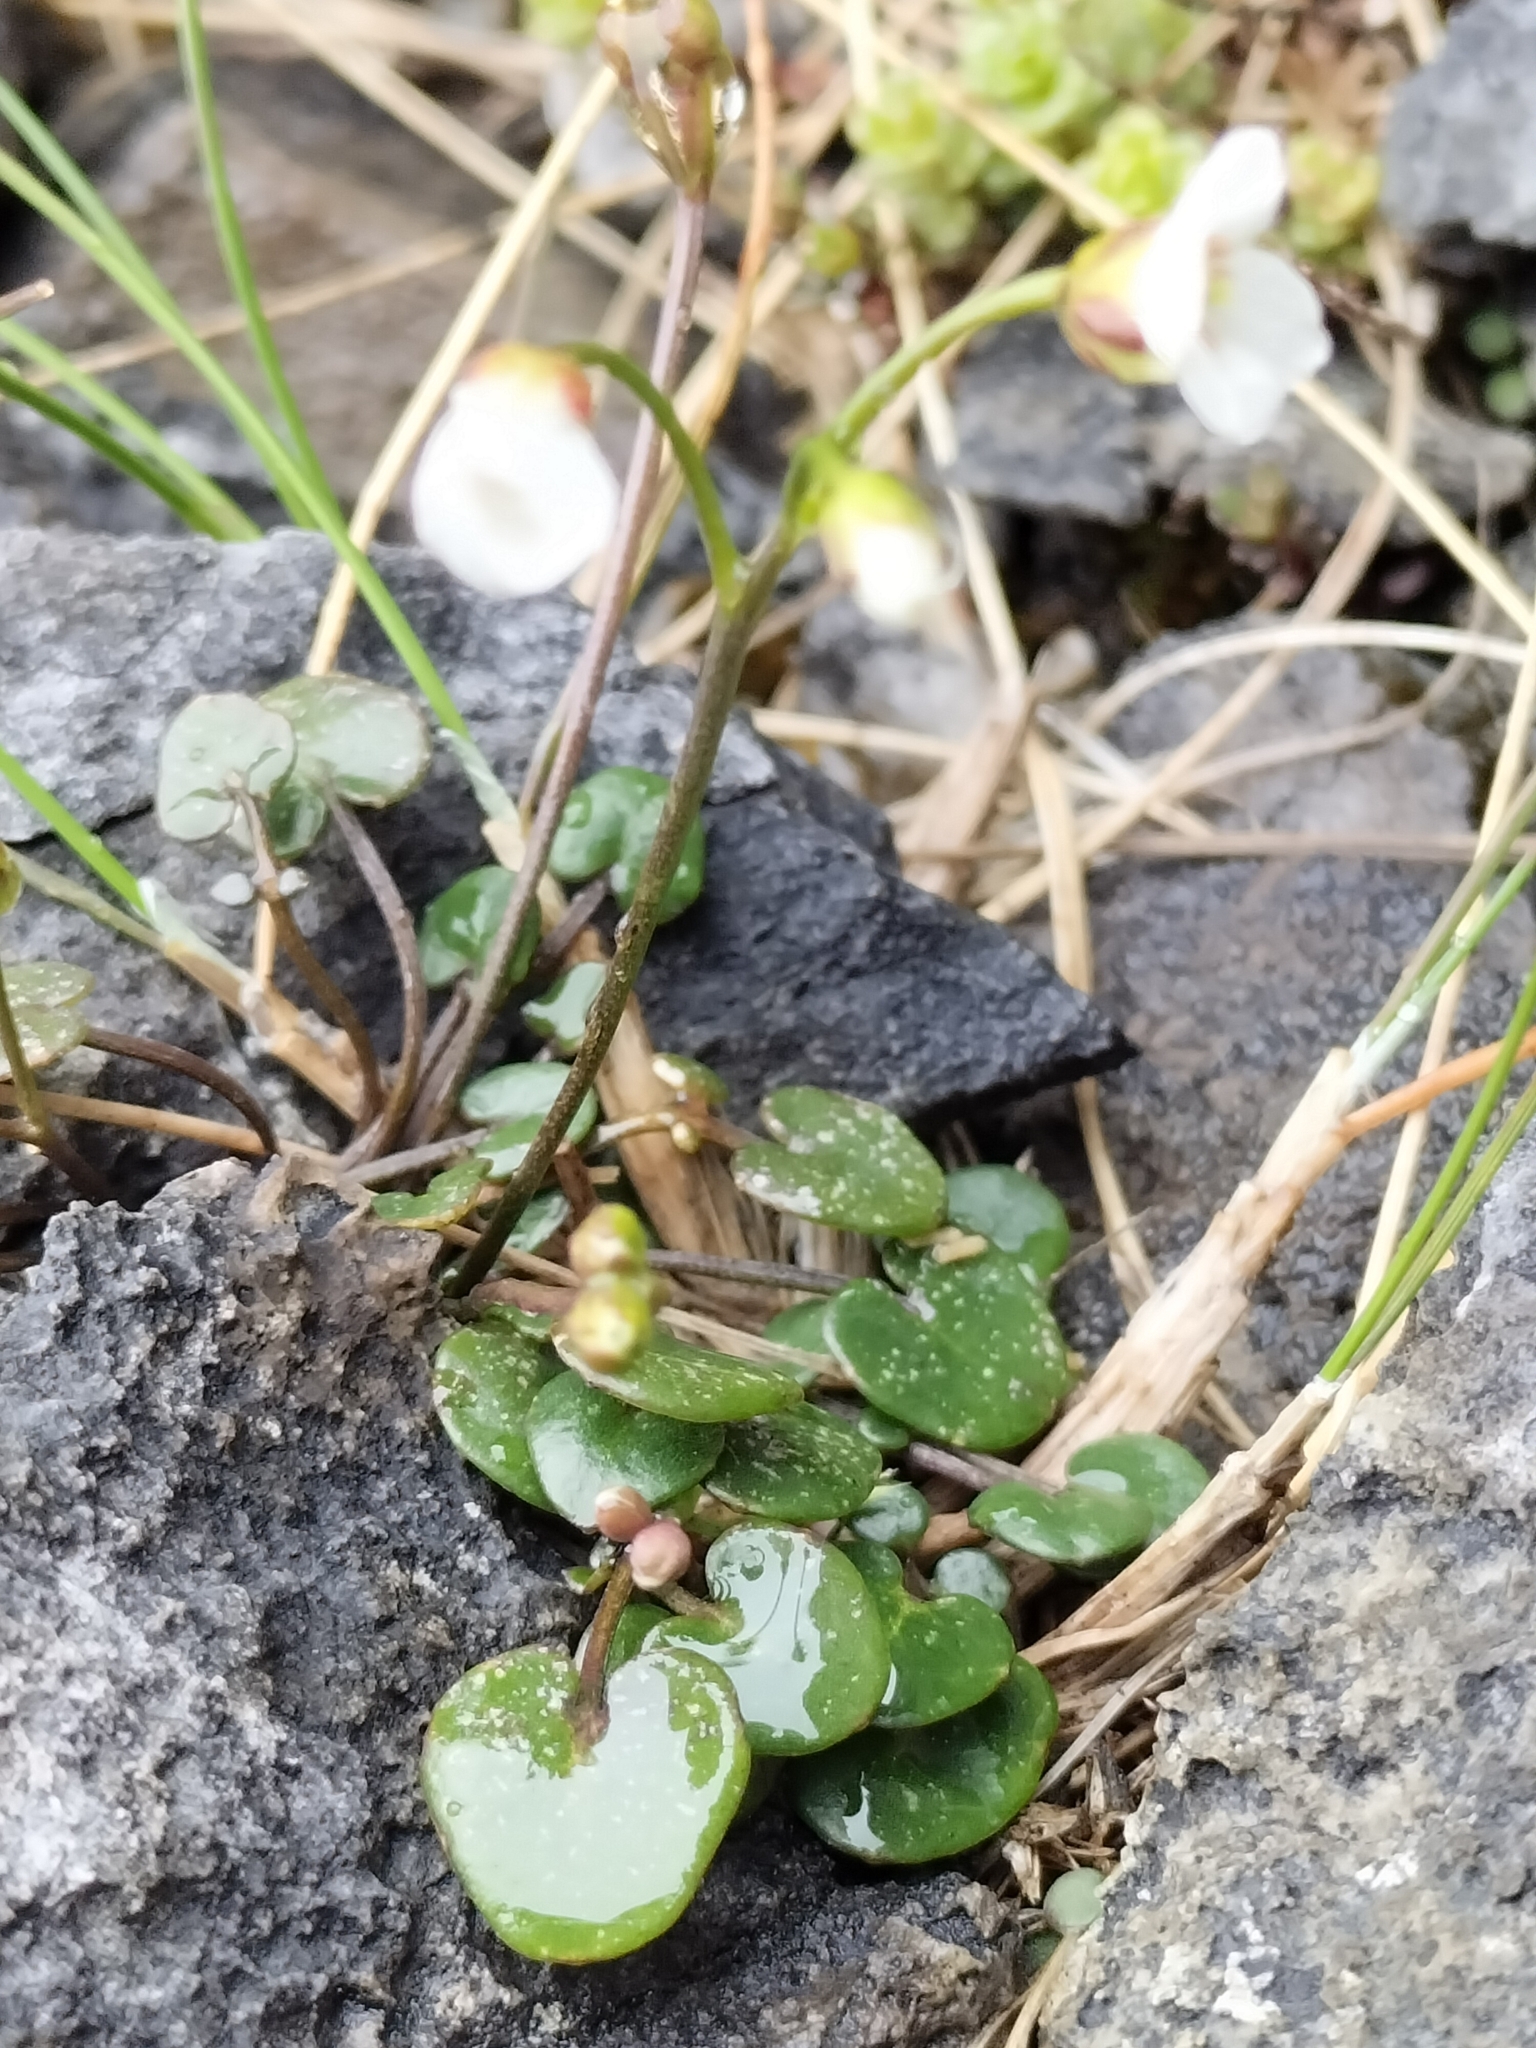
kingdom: Plantae
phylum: Tracheophyta
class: Magnoliopsida
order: Brassicales
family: Brassicaceae
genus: Cardamine
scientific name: Cardamine basicola
